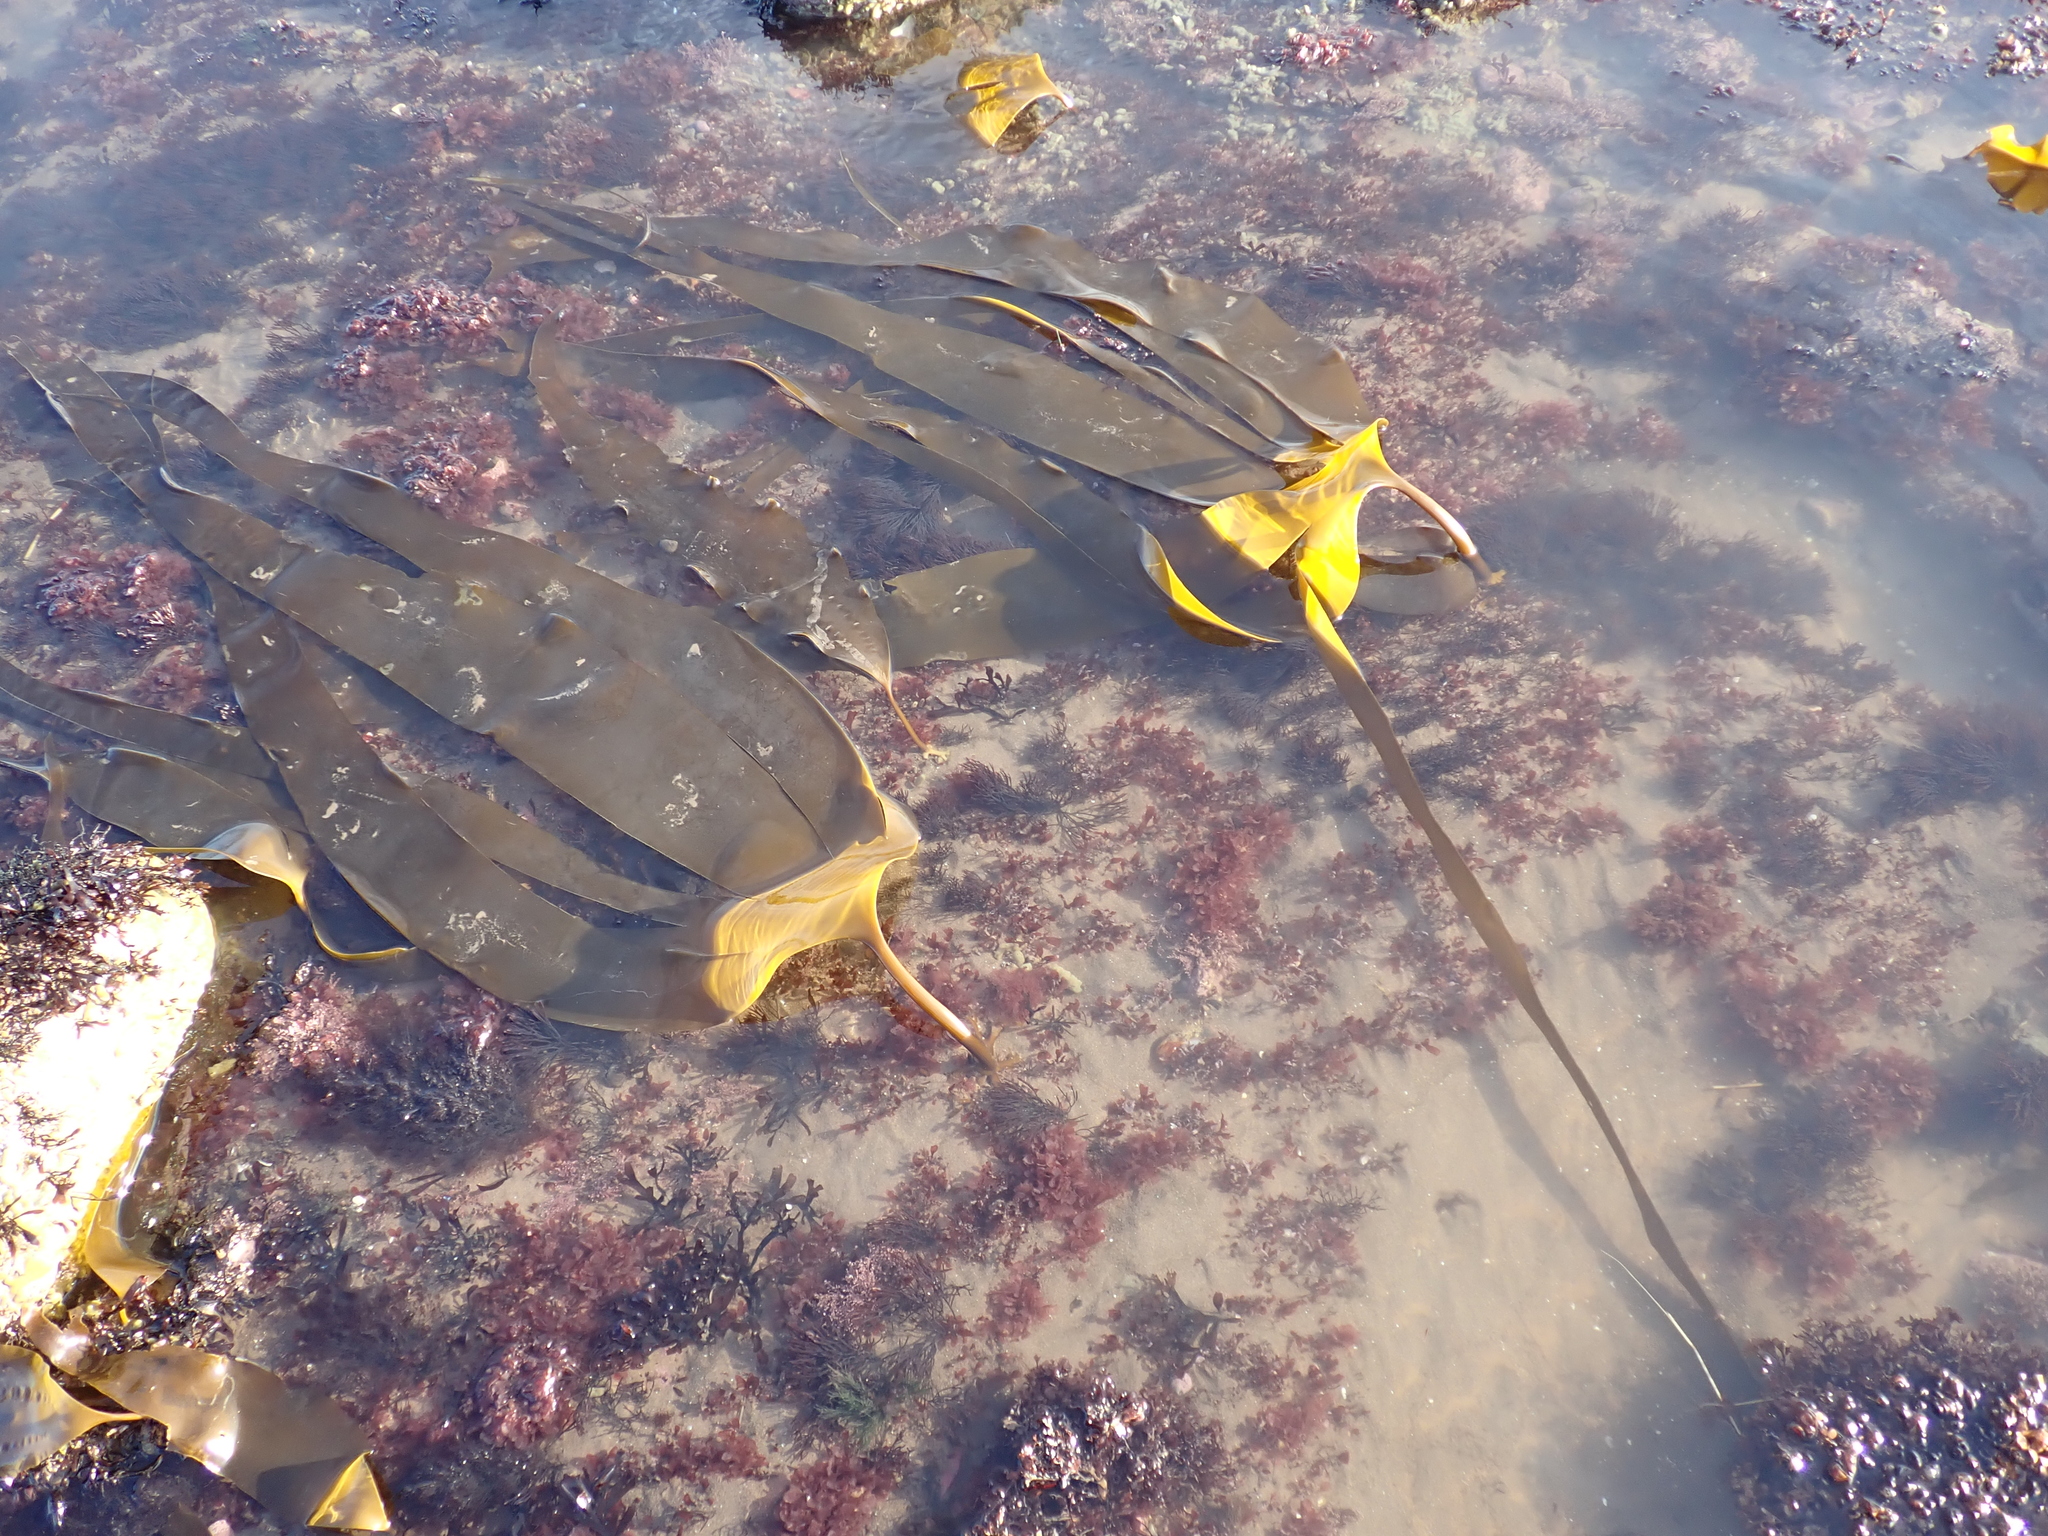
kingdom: Chromista
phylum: Ochrophyta
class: Phaeophyceae
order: Laminariales
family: Laminariaceae
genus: Laminaria
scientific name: Laminaria digitata
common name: Oarweed
